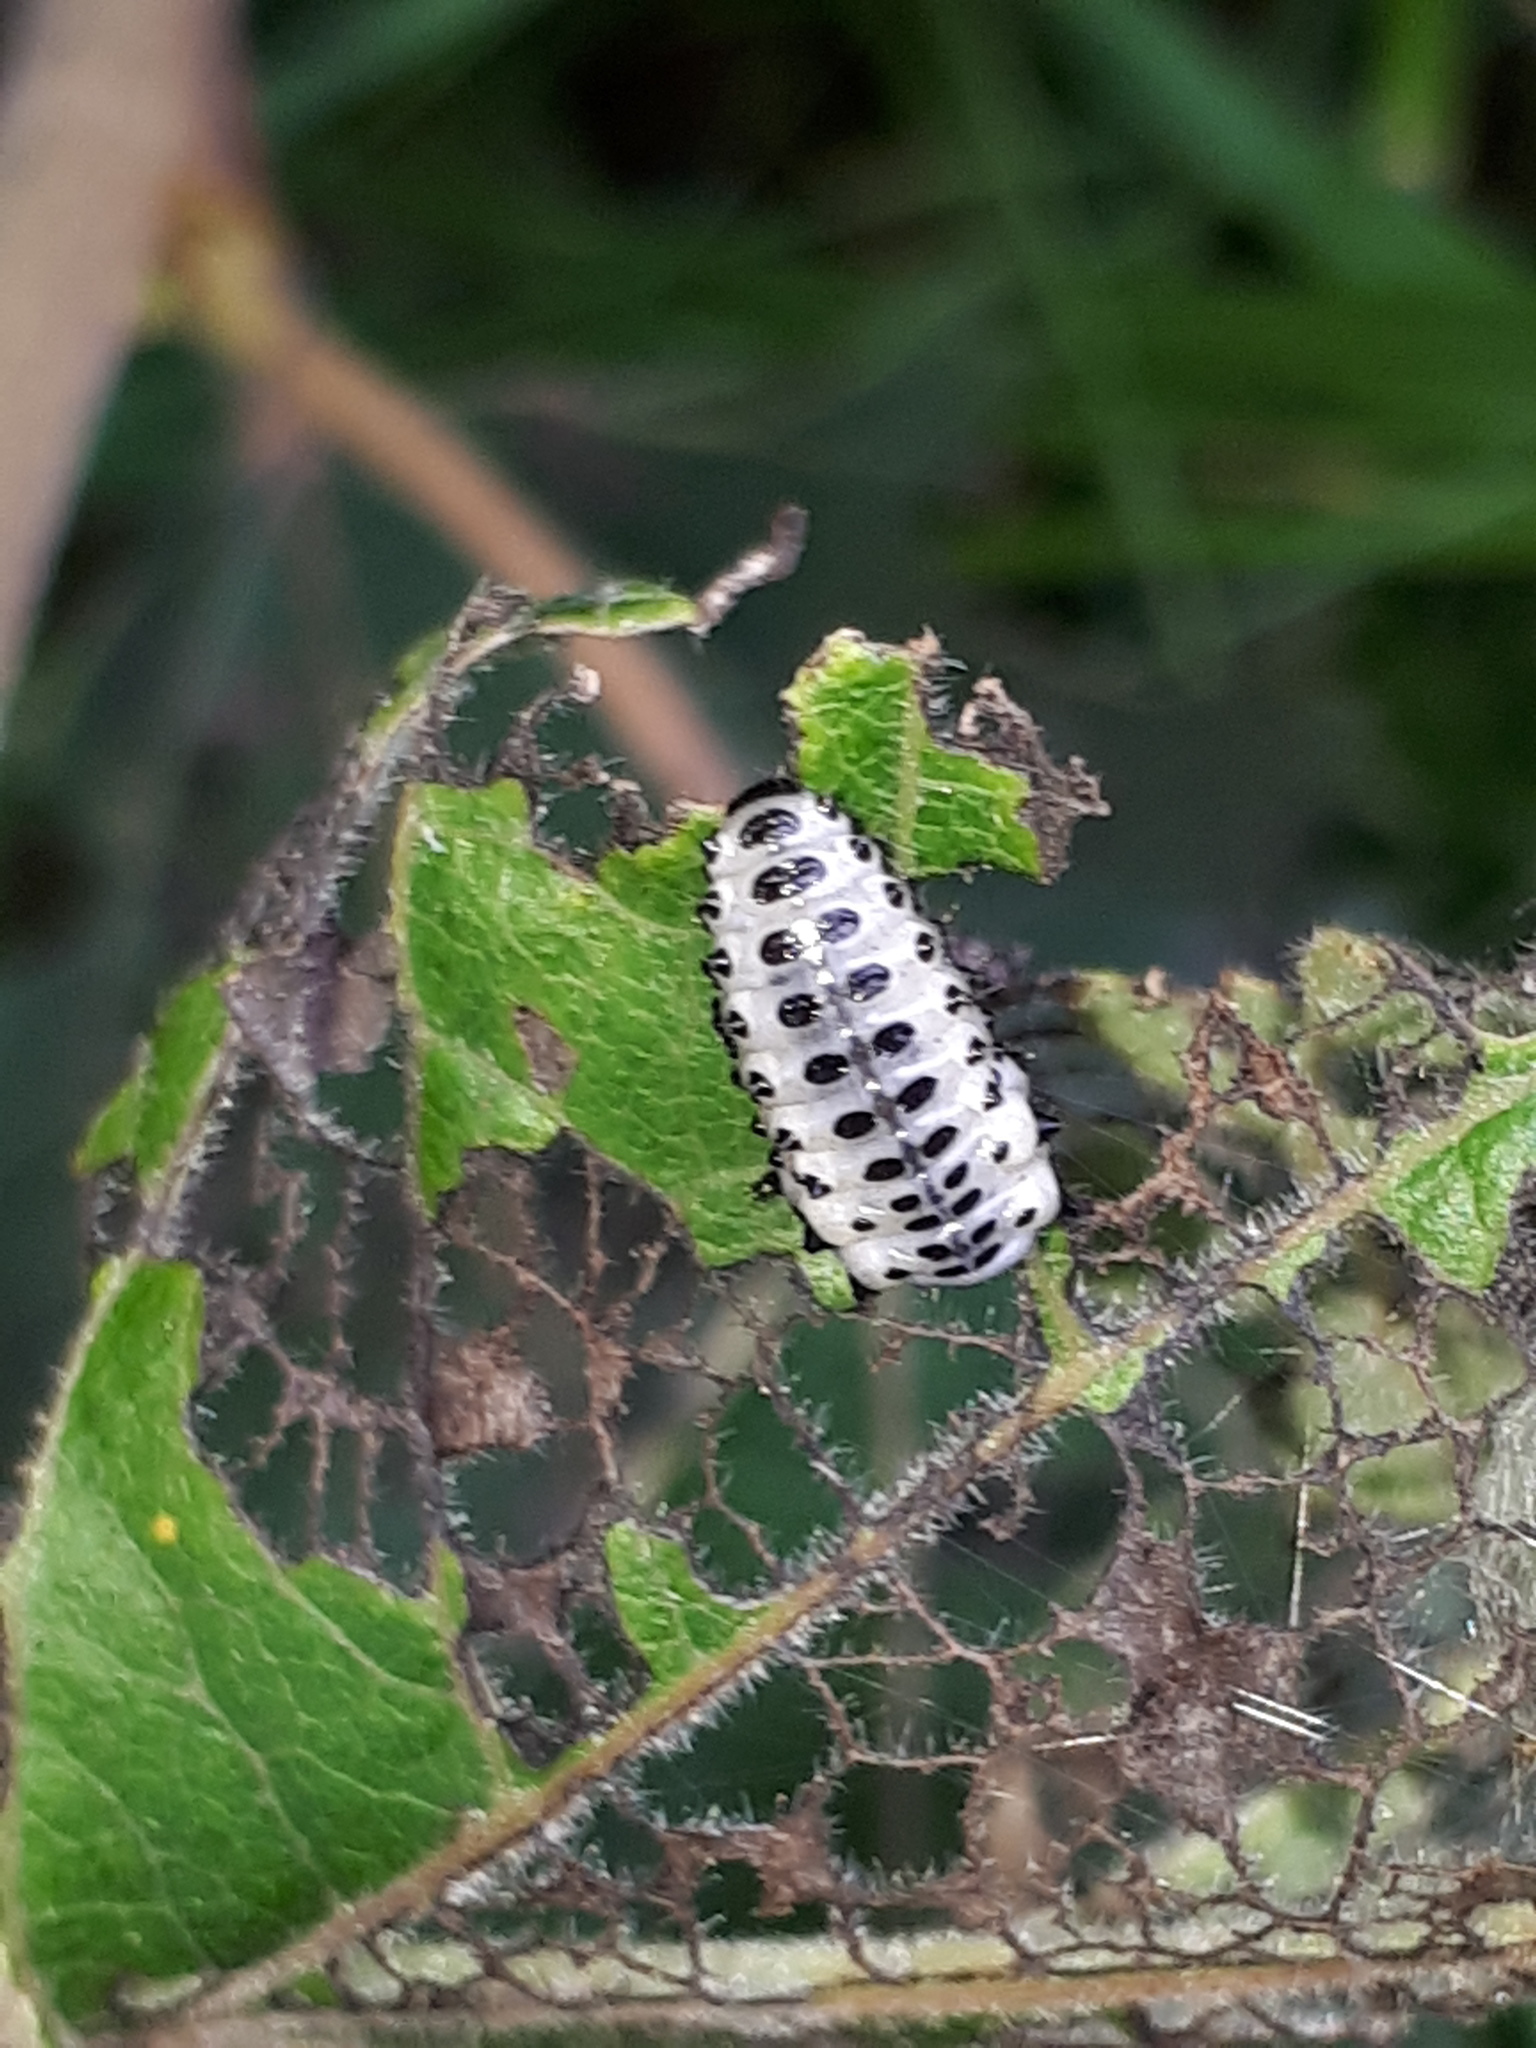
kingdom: Animalia
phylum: Arthropoda
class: Insecta
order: Coleoptera
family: Chrysomelidae
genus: Chrysomela
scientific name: Chrysomela populi
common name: Red poplar leaf beetle
